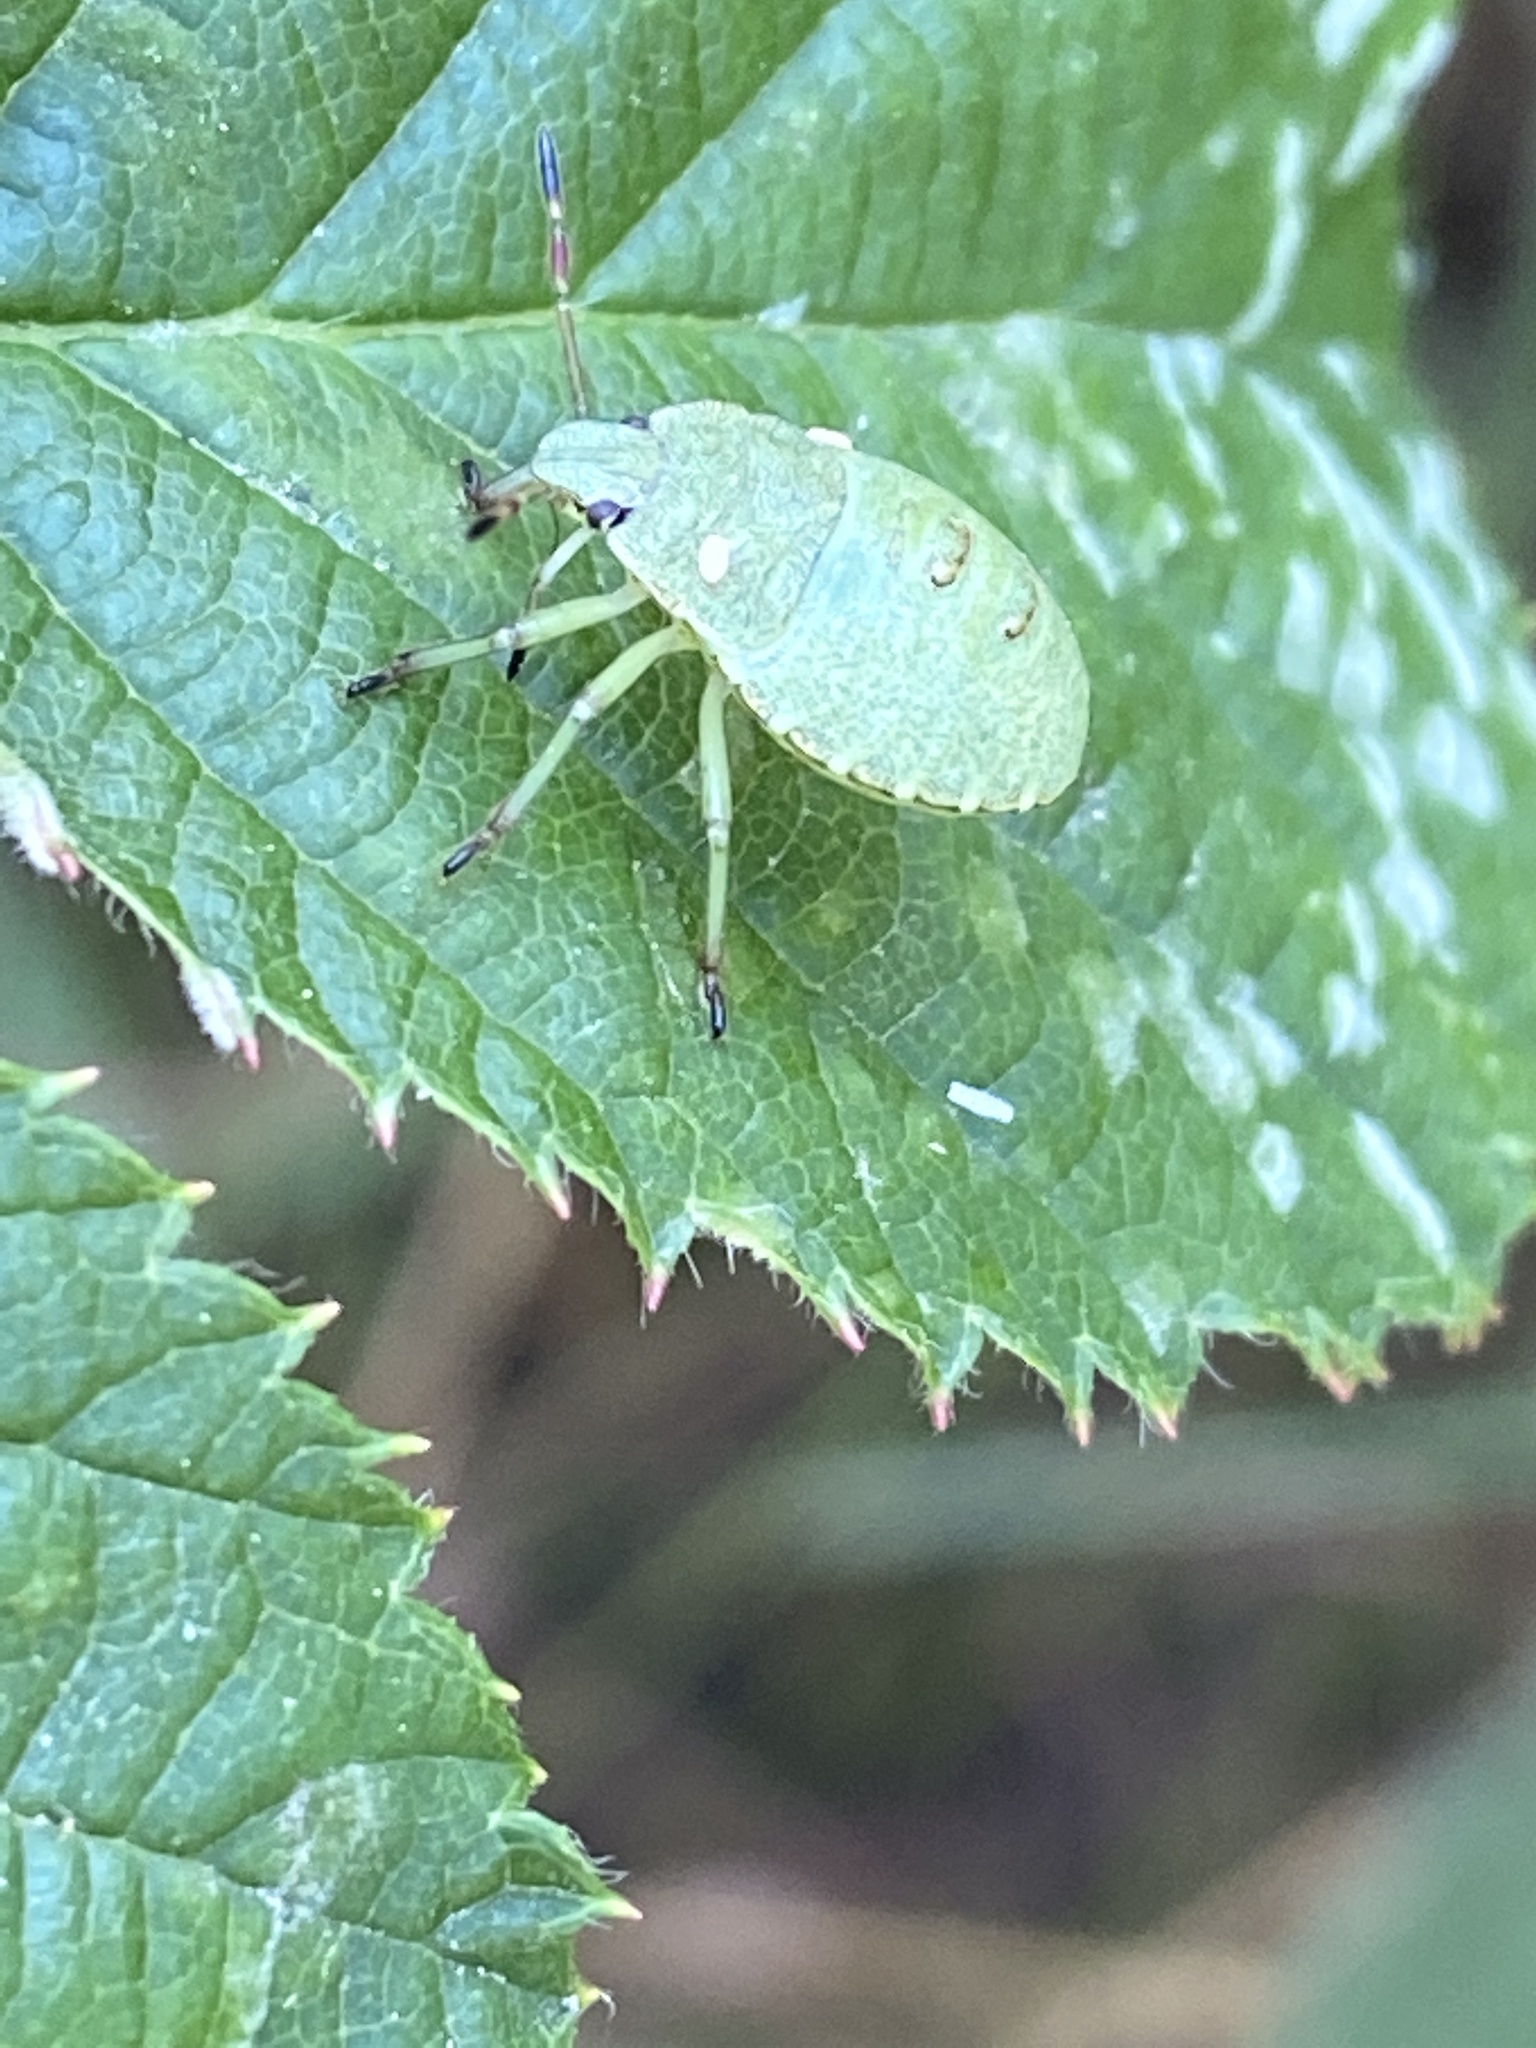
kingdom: Animalia
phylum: Arthropoda
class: Insecta
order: Hemiptera
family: Pentatomidae
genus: Palomena
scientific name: Palomena prasina
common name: Green shieldbug
